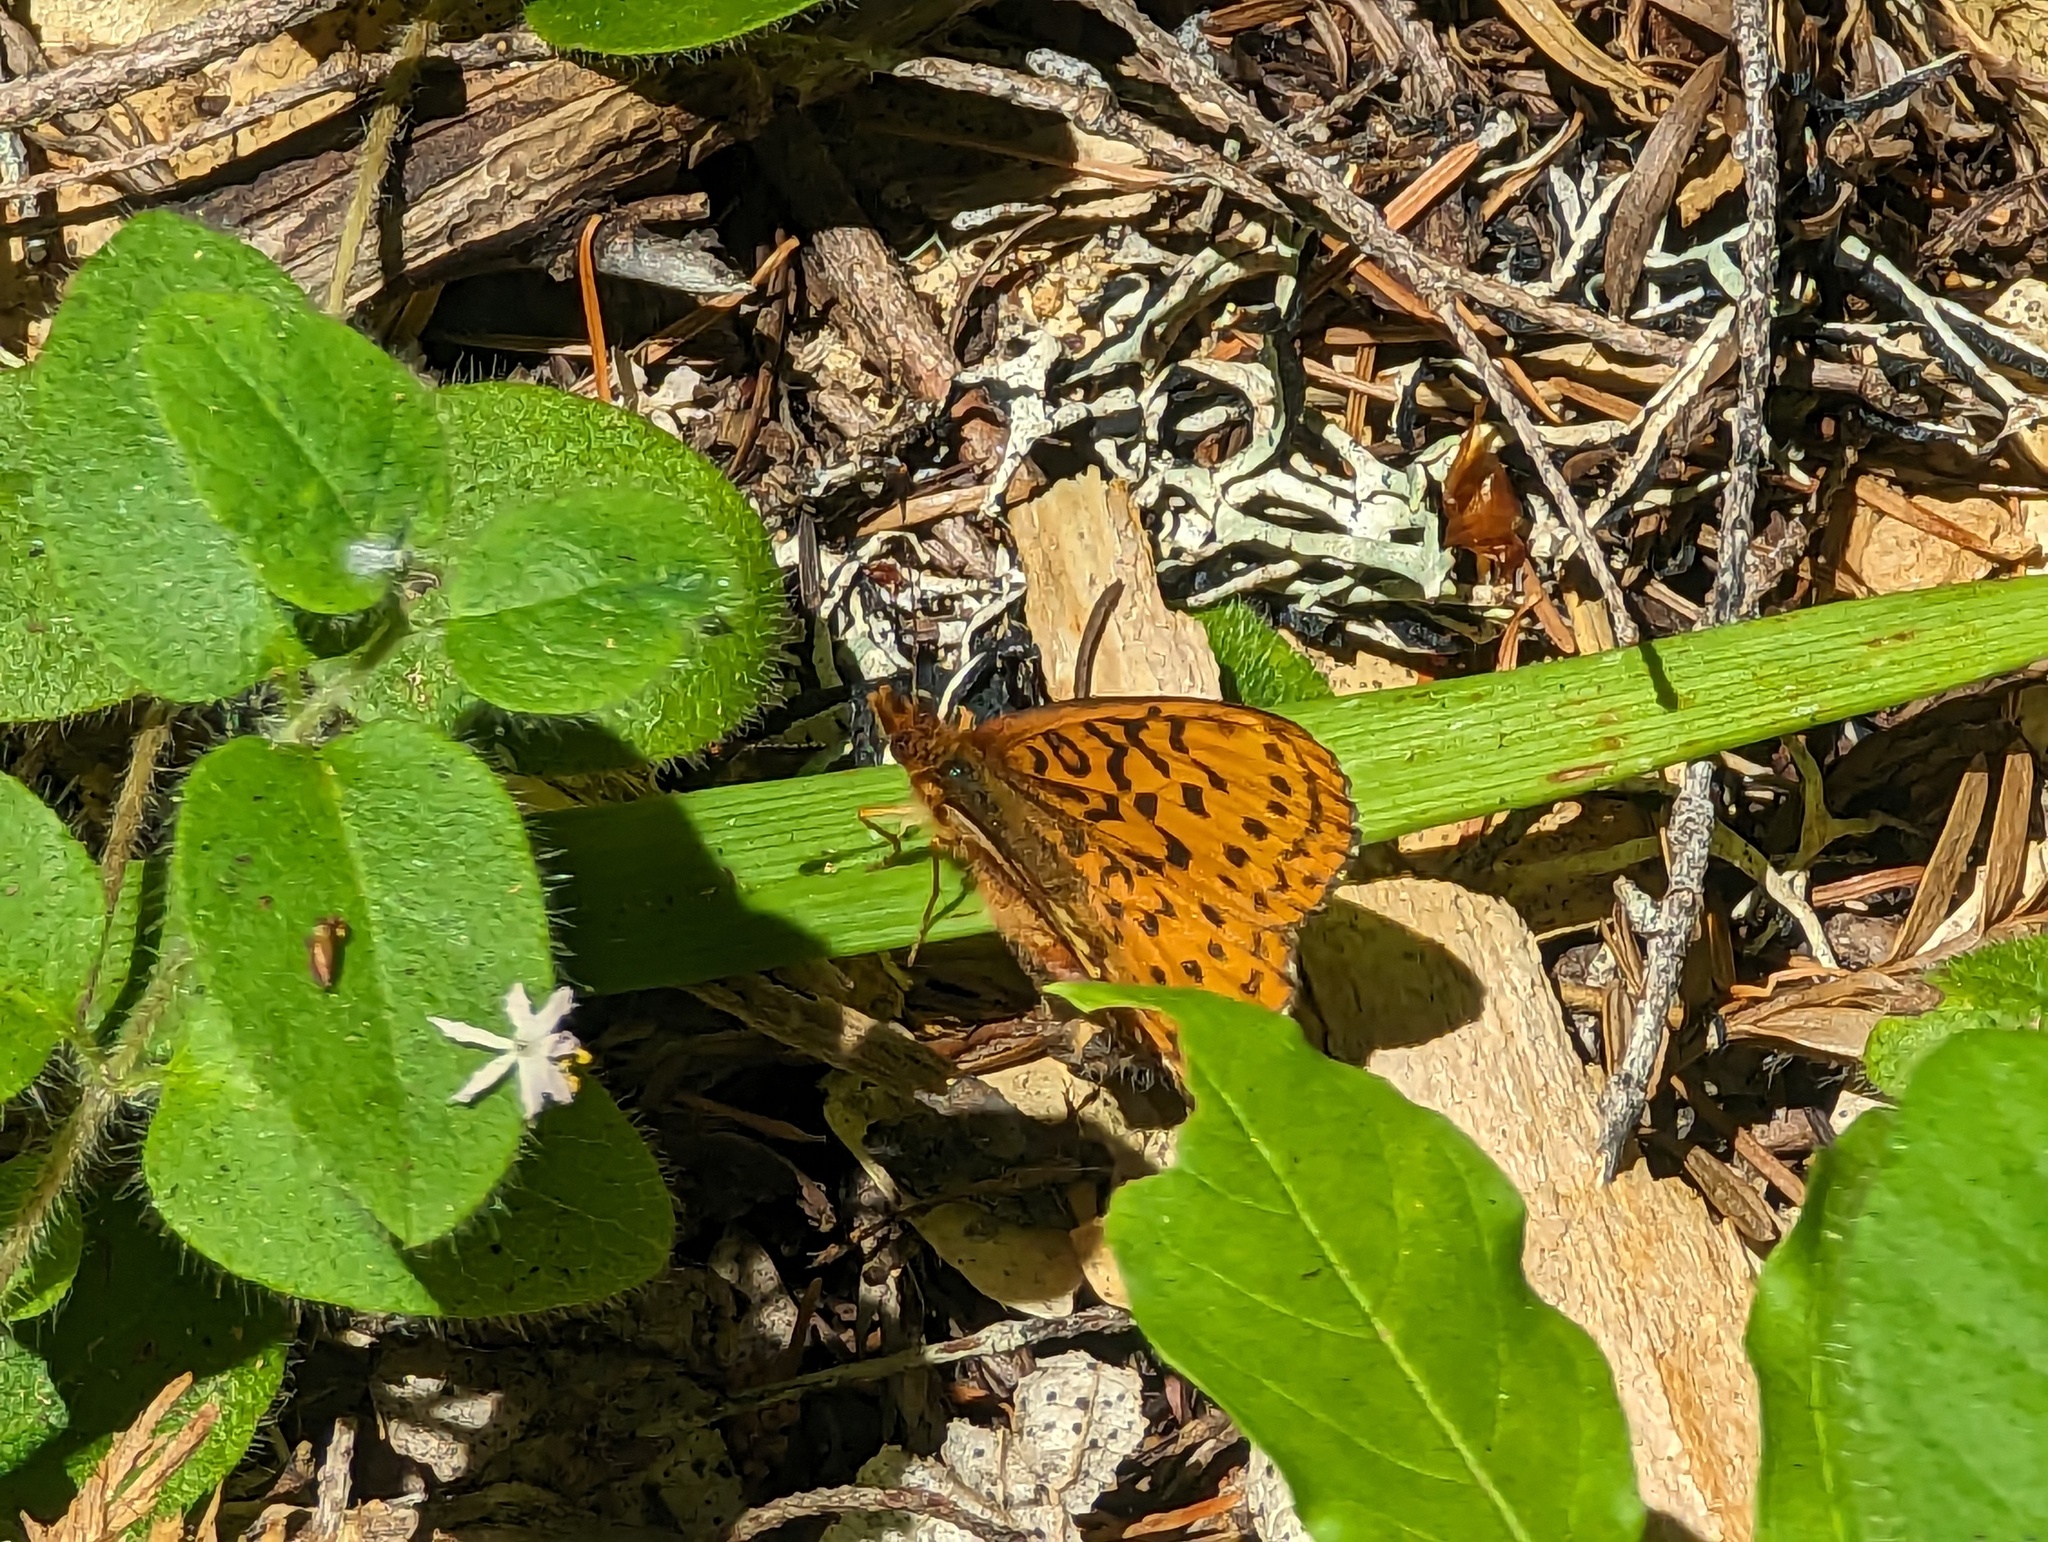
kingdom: Animalia
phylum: Arthropoda
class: Insecta
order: Lepidoptera
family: Nymphalidae
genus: Boloria
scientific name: Boloria epithore
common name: Pacific fritillary
